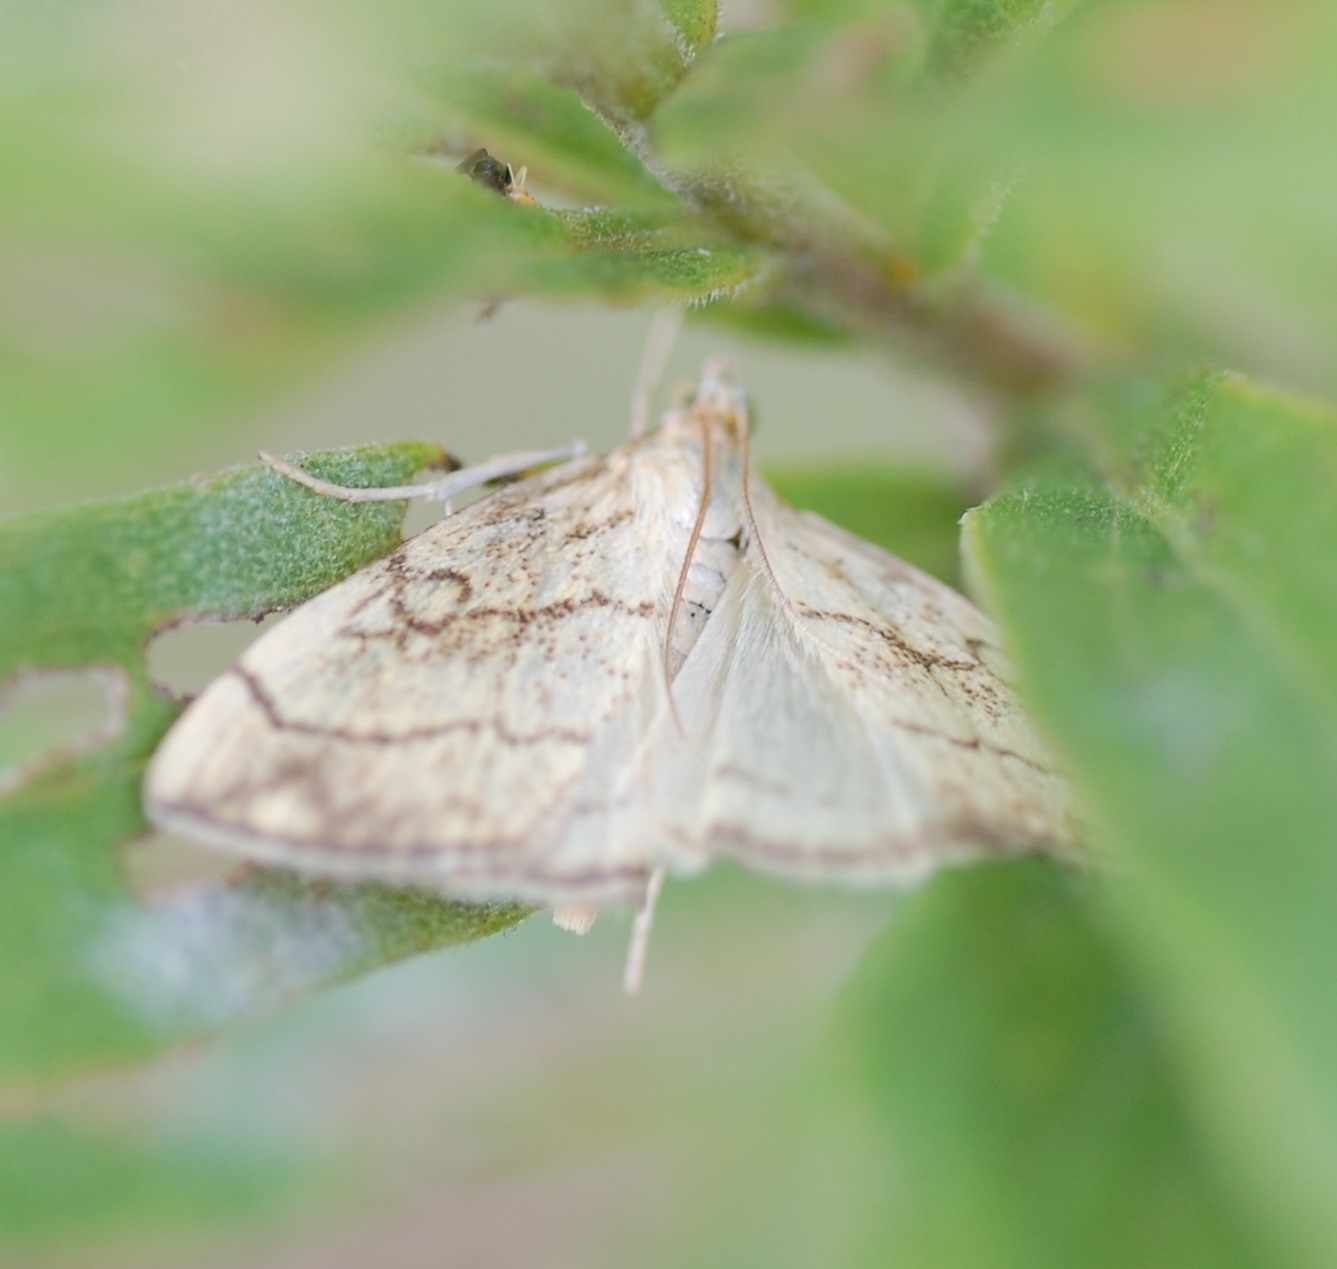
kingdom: Animalia
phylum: Arthropoda
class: Insecta
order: Lepidoptera
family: Crambidae
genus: Evergestis
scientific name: Evergestis pallidata
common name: Chequered pearl
